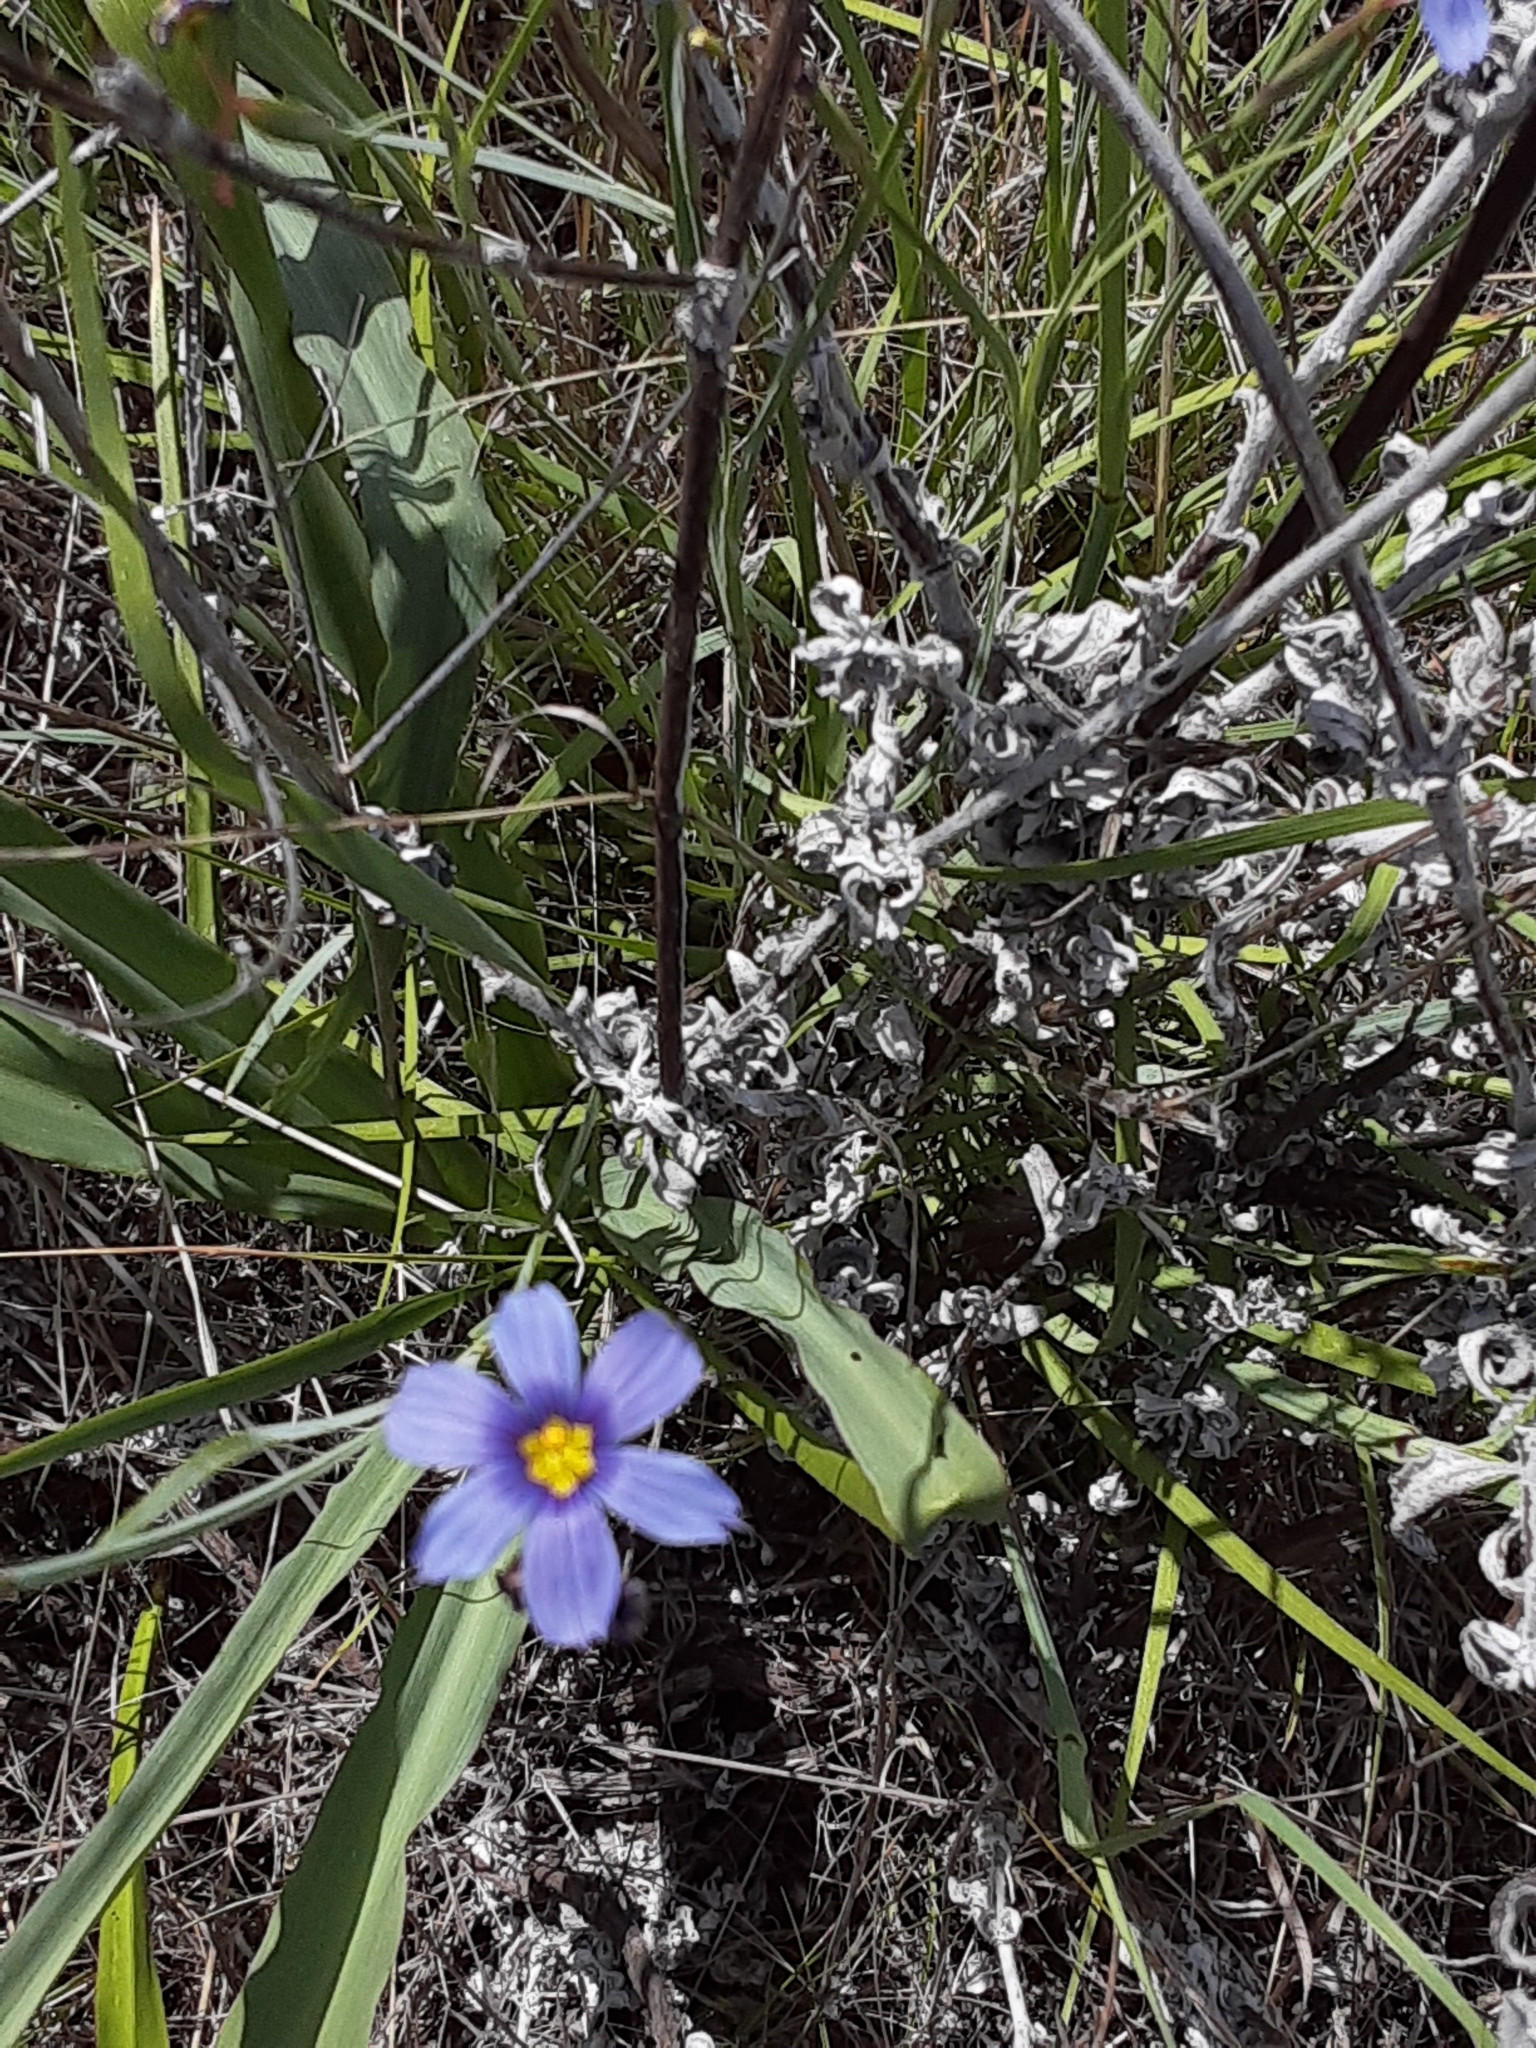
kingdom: Plantae
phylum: Tracheophyta
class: Liliopsida
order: Asparagales
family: Iridaceae
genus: Sisyrinchium
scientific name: Sisyrinchium bellum
